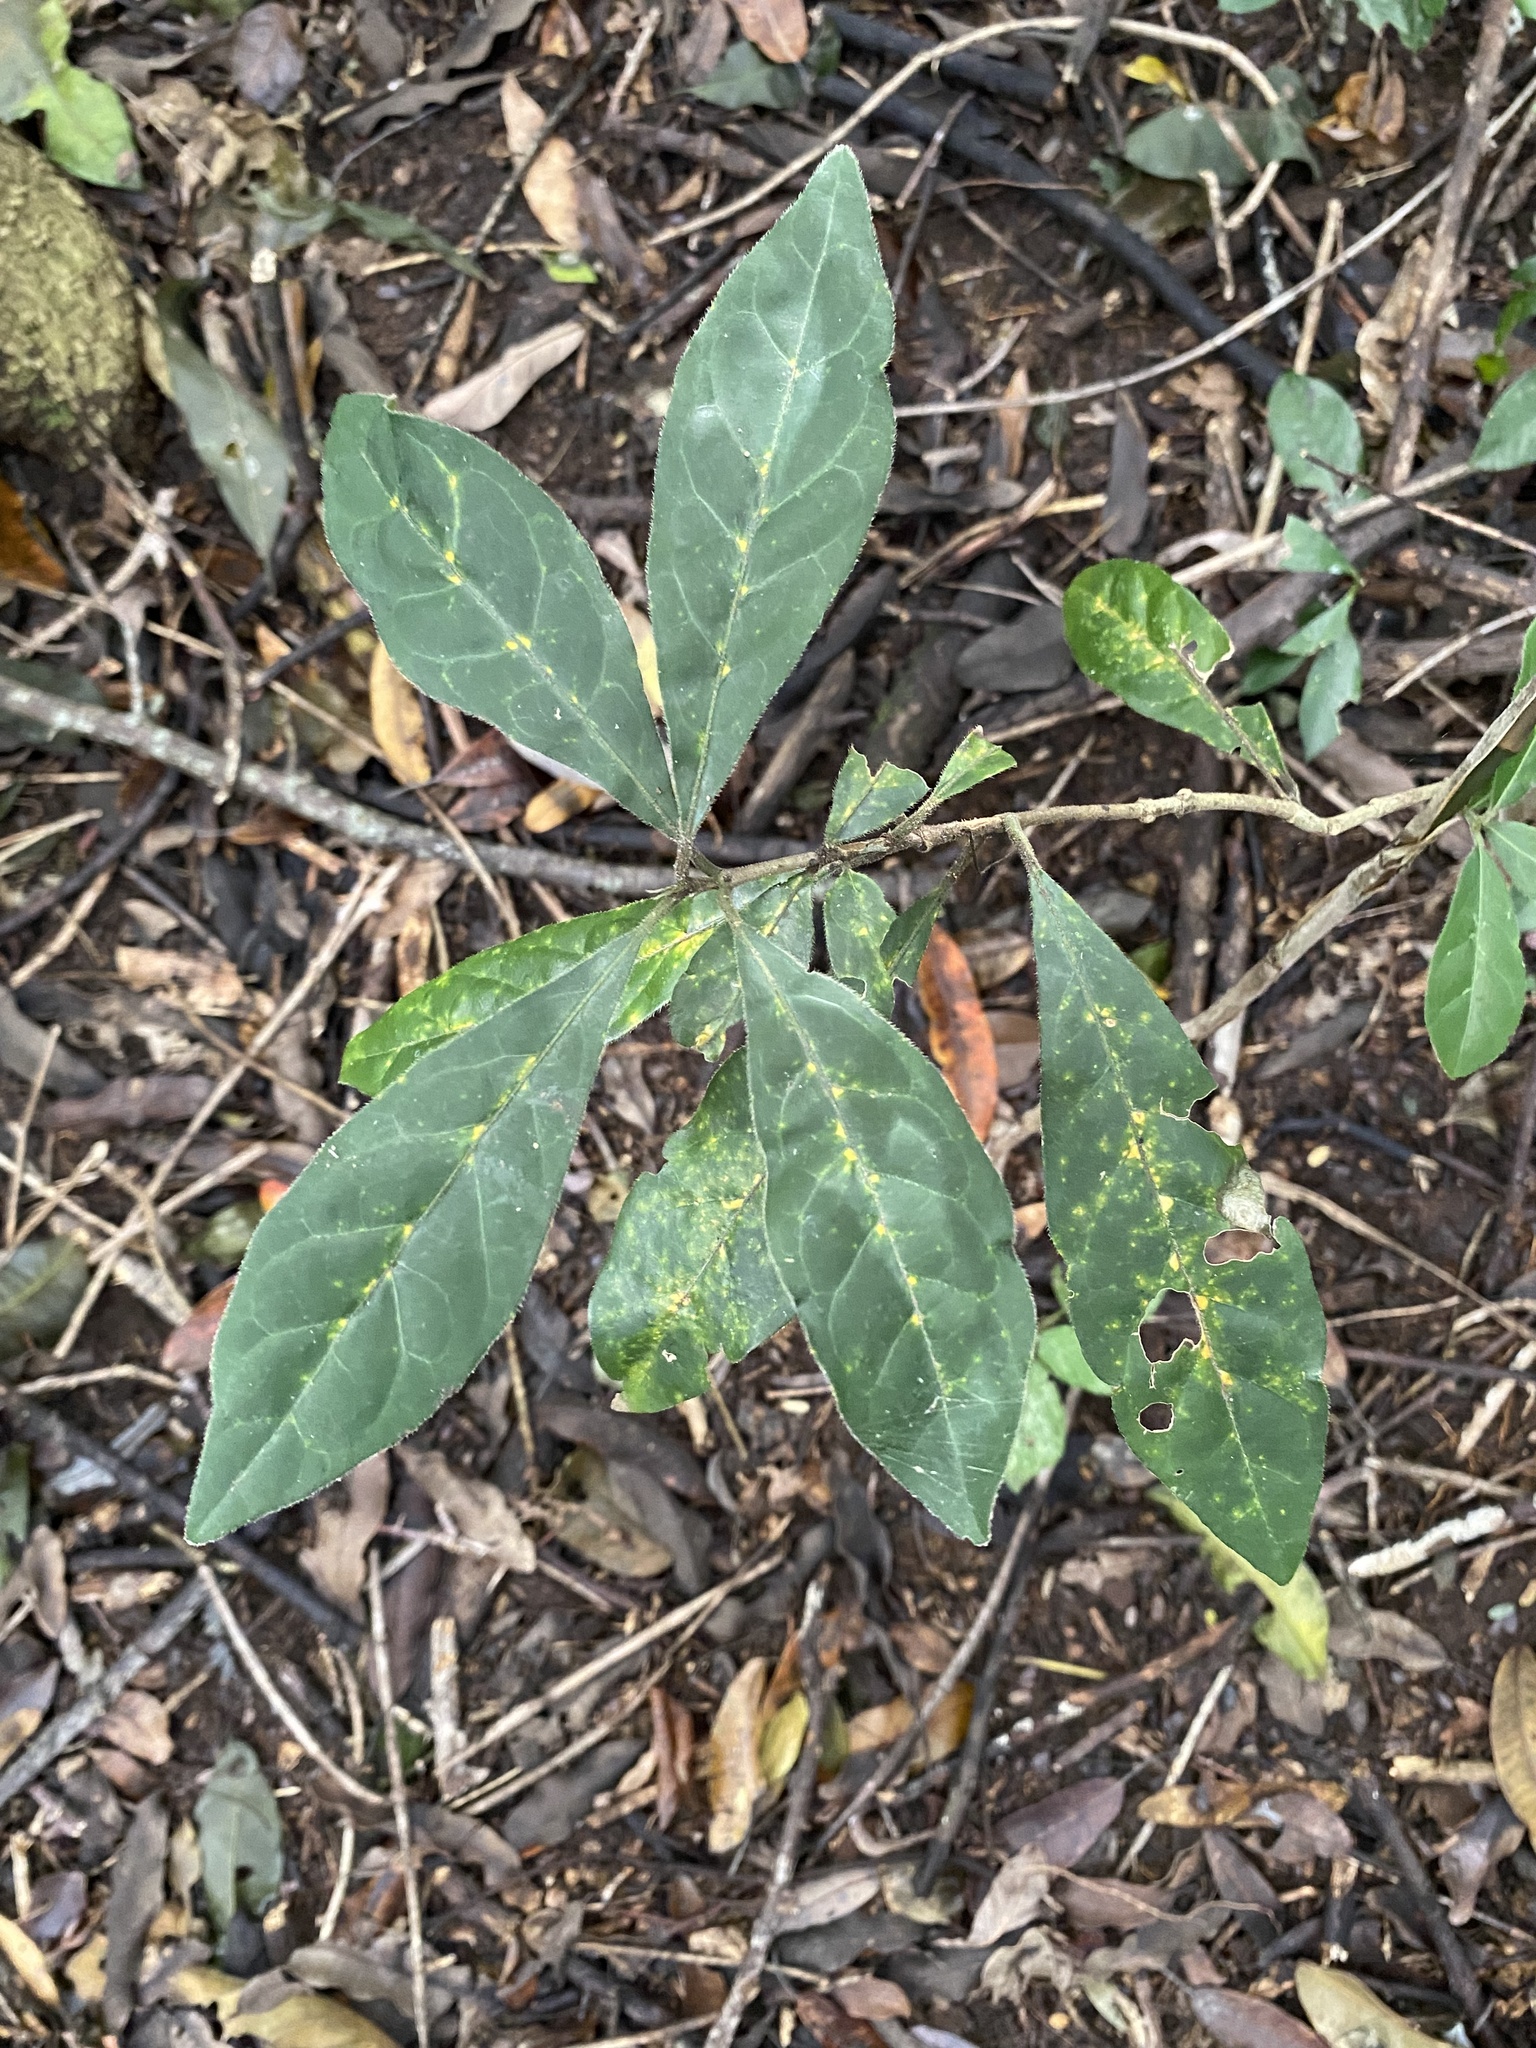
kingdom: Plantae
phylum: Tracheophyta
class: Magnoliopsida
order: Gentianales
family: Rubiaceae
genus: Rothmannia
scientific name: Rothmannia globosa
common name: September bells
